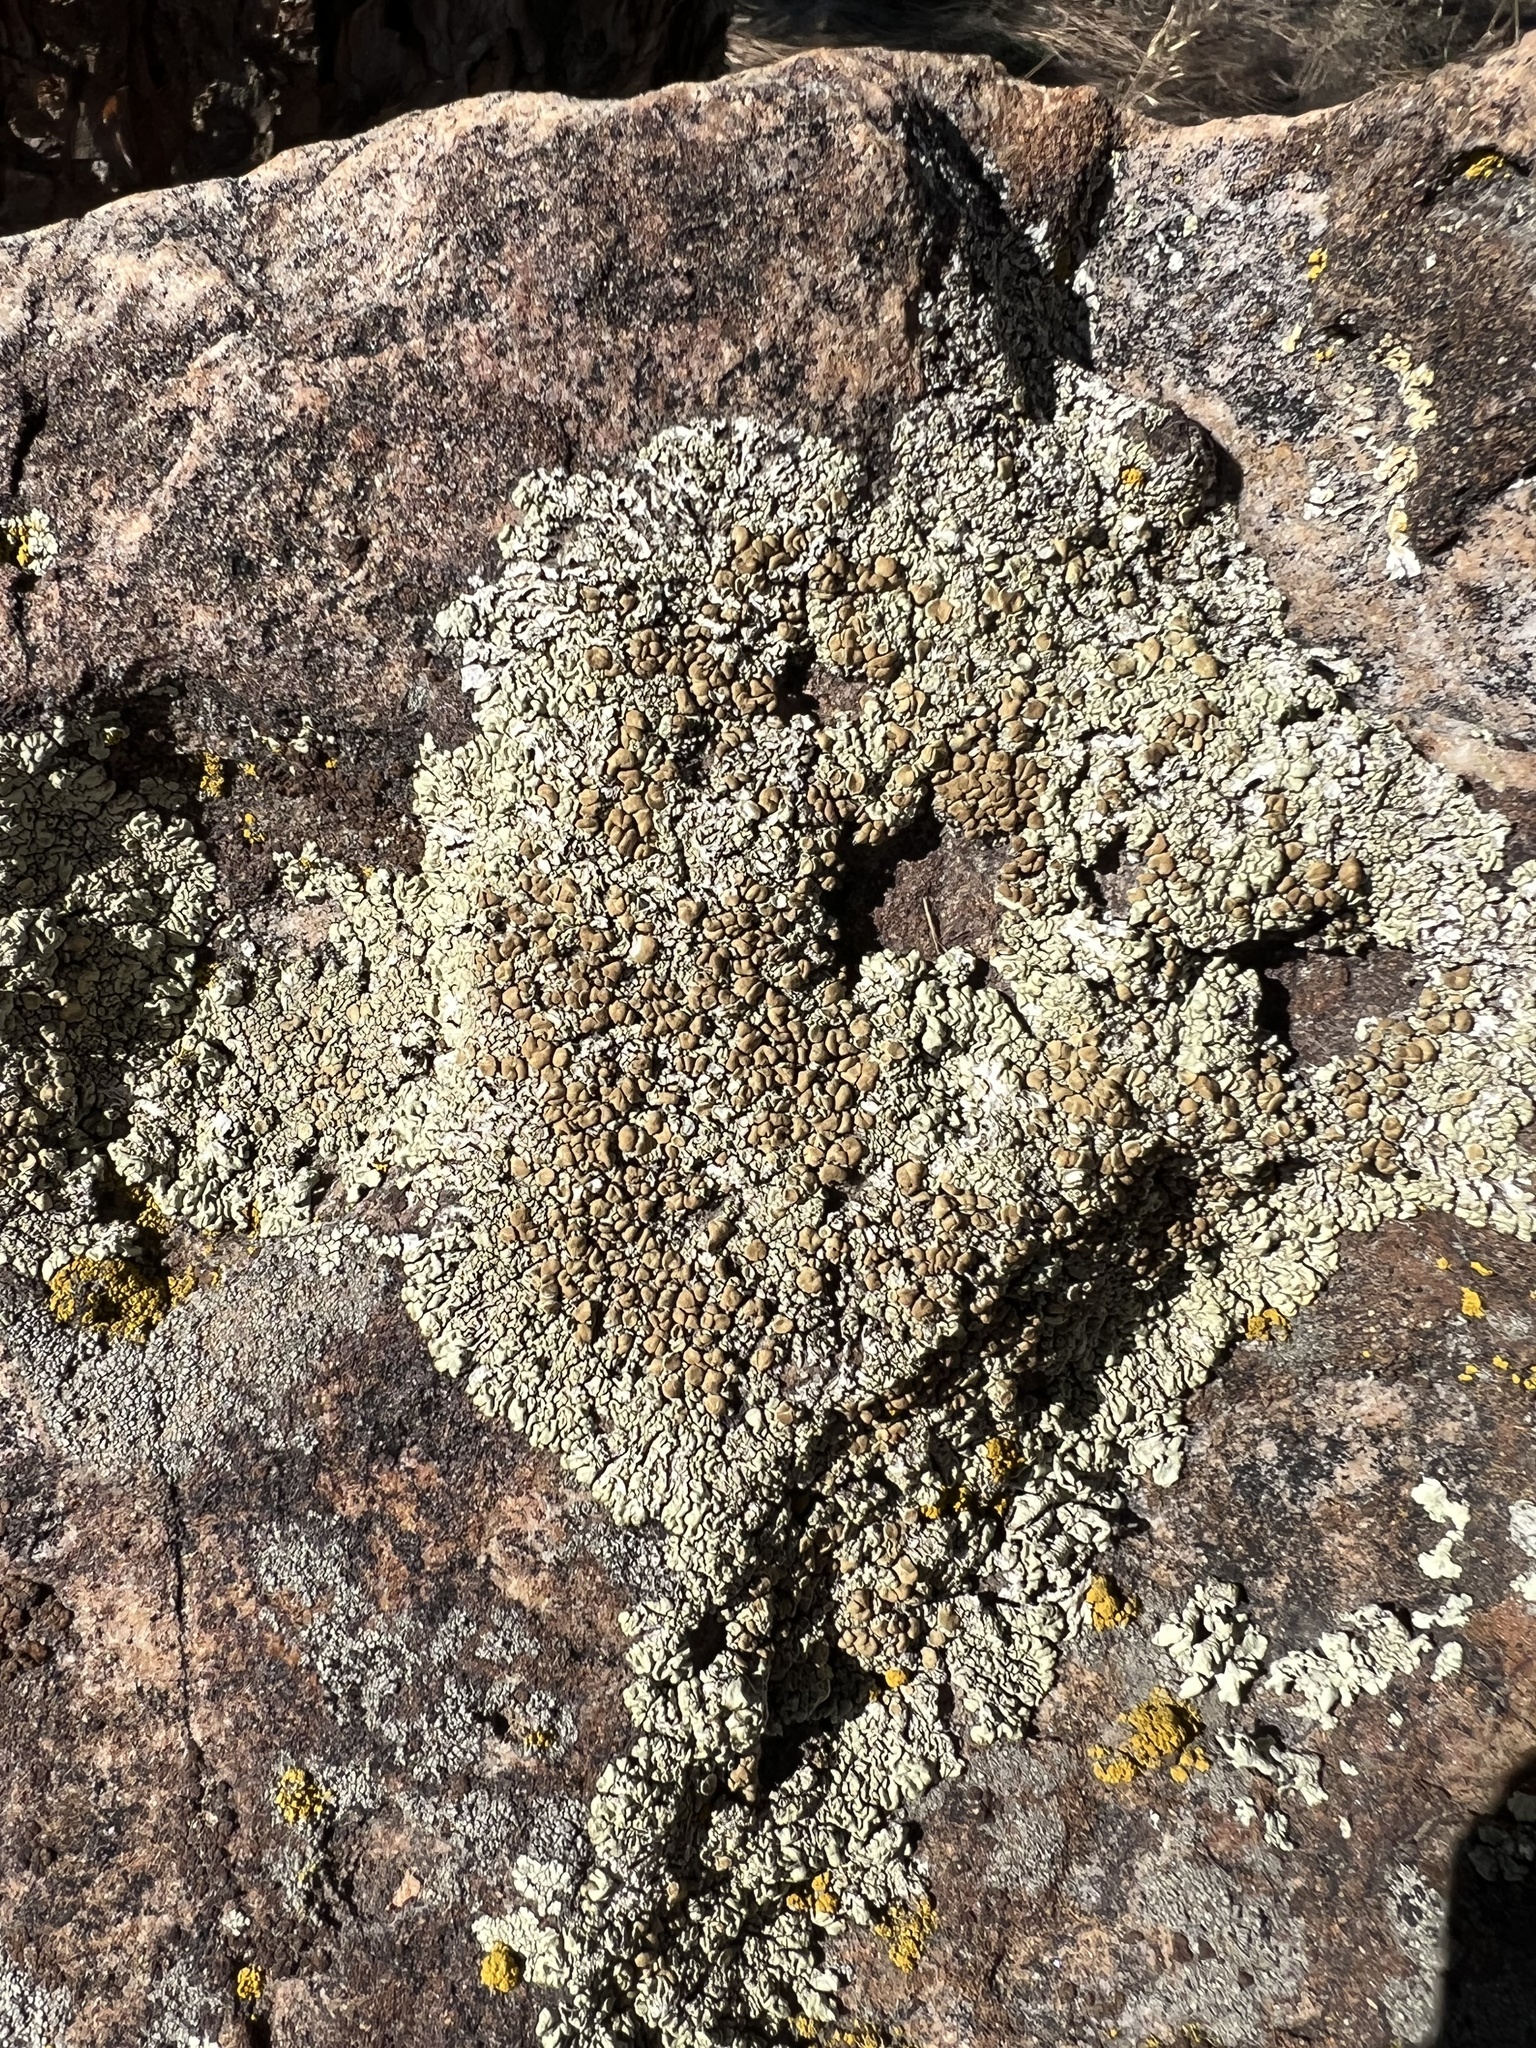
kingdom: Fungi
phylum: Ascomycota
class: Lecanoromycetes
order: Lecanorales
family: Lecanoraceae
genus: Protoparmeliopsis
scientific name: Protoparmeliopsis garovaglii
